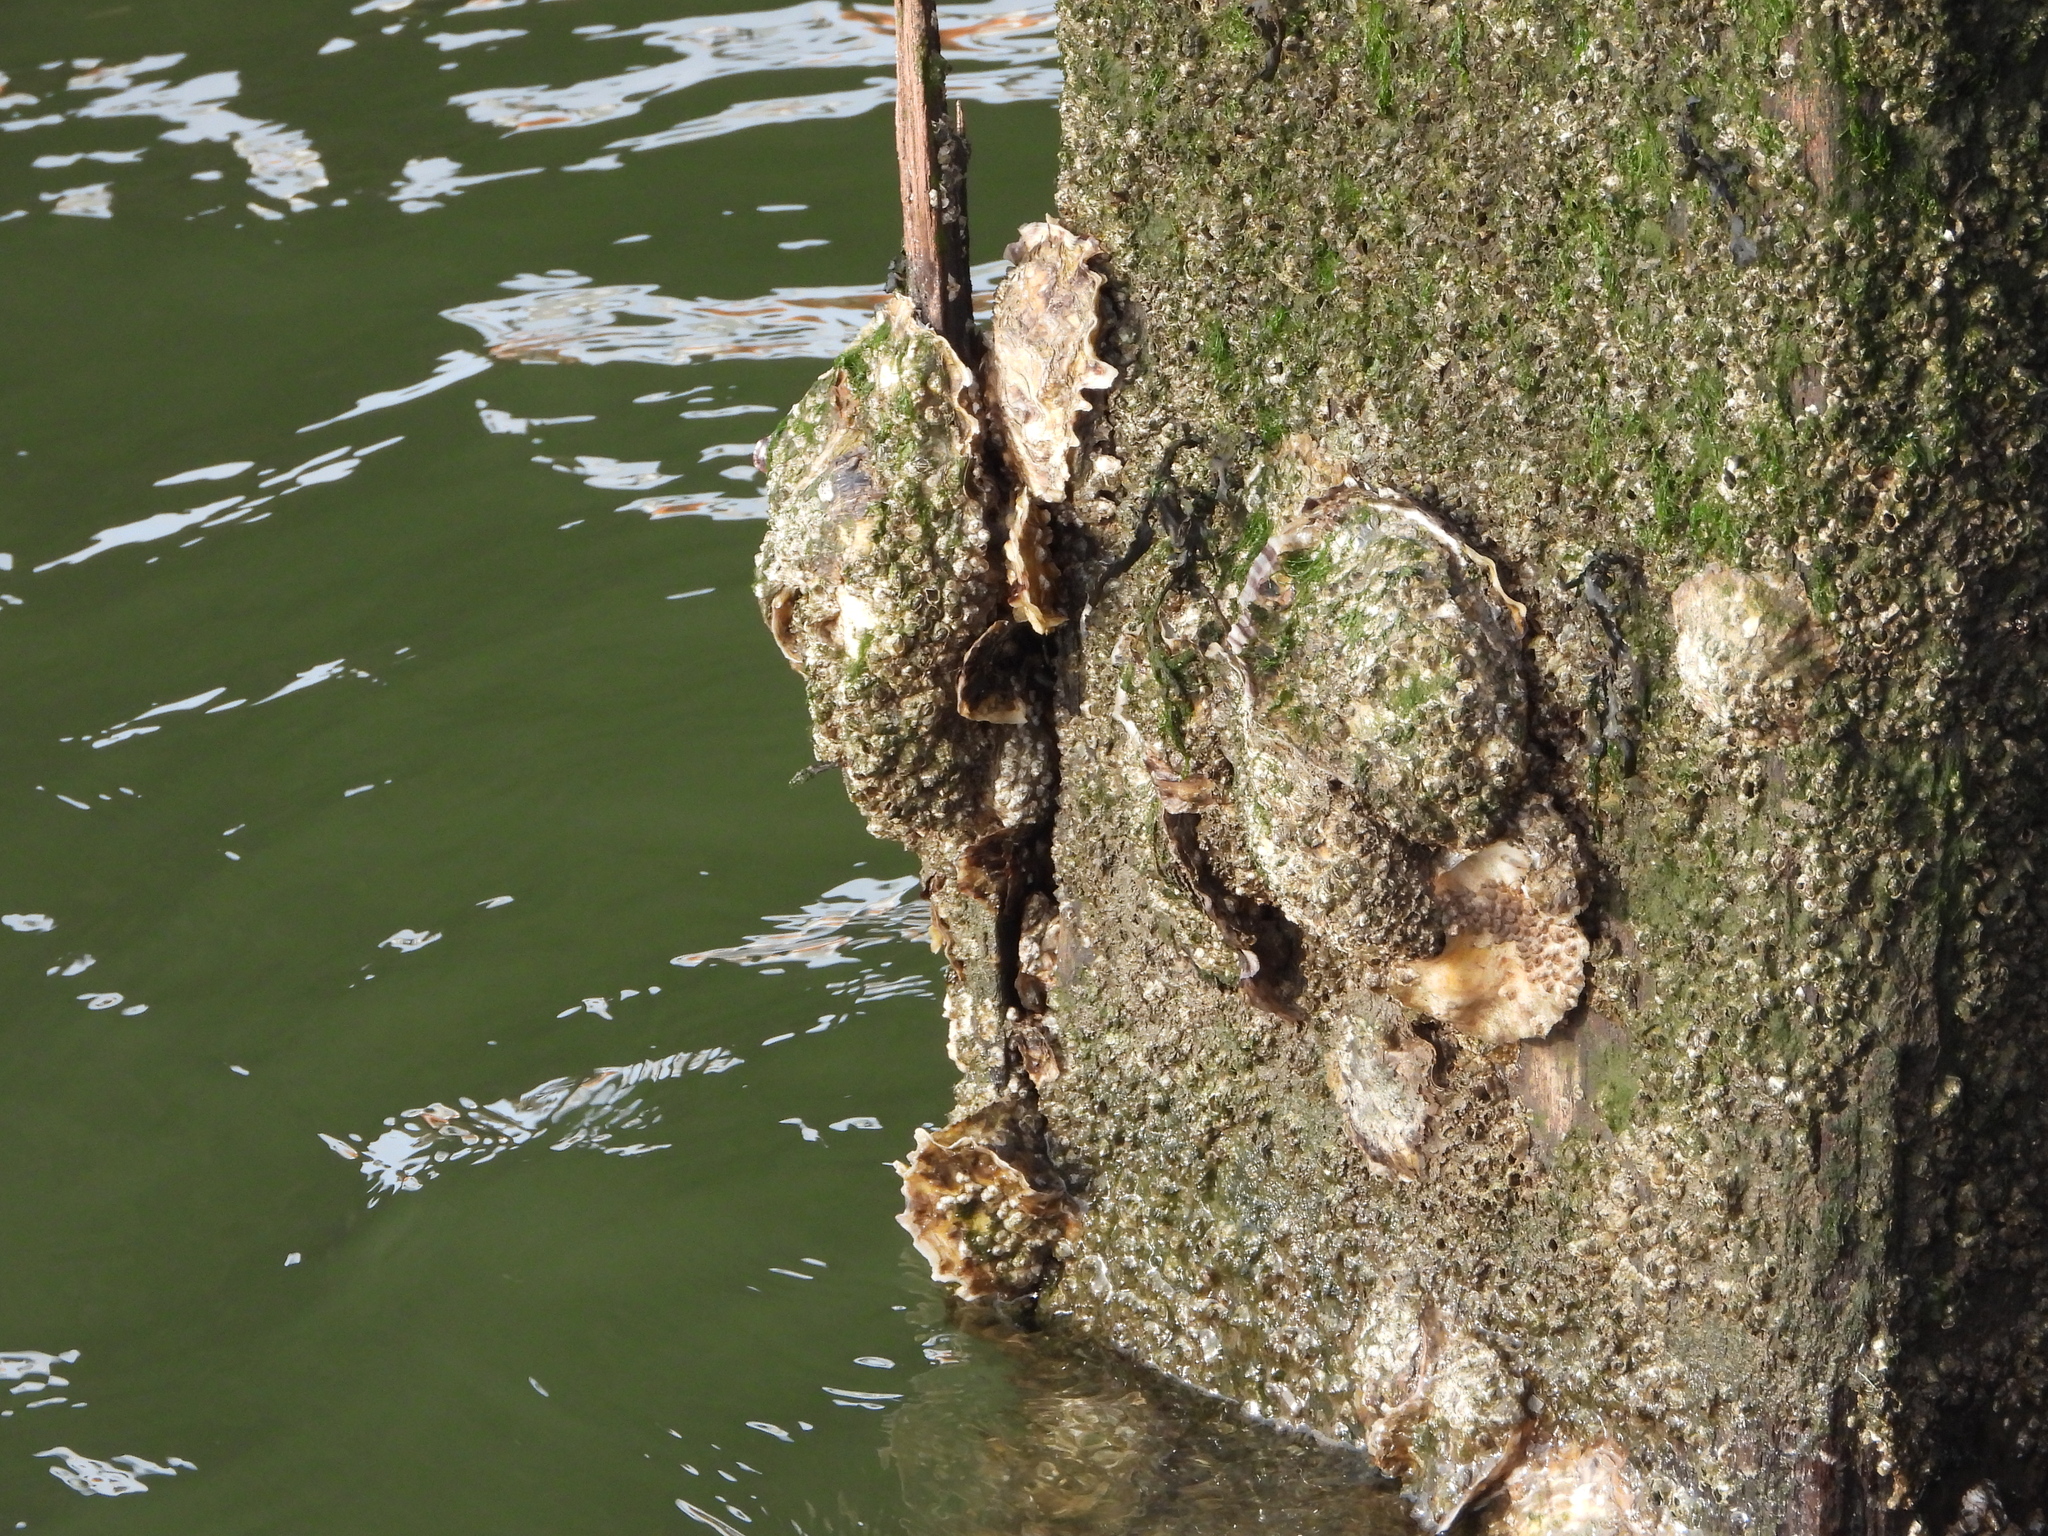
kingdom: Animalia
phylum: Mollusca
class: Bivalvia
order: Ostreida
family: Ostreidae
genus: Magallana
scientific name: Magallana gigas
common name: Pacific oyster
